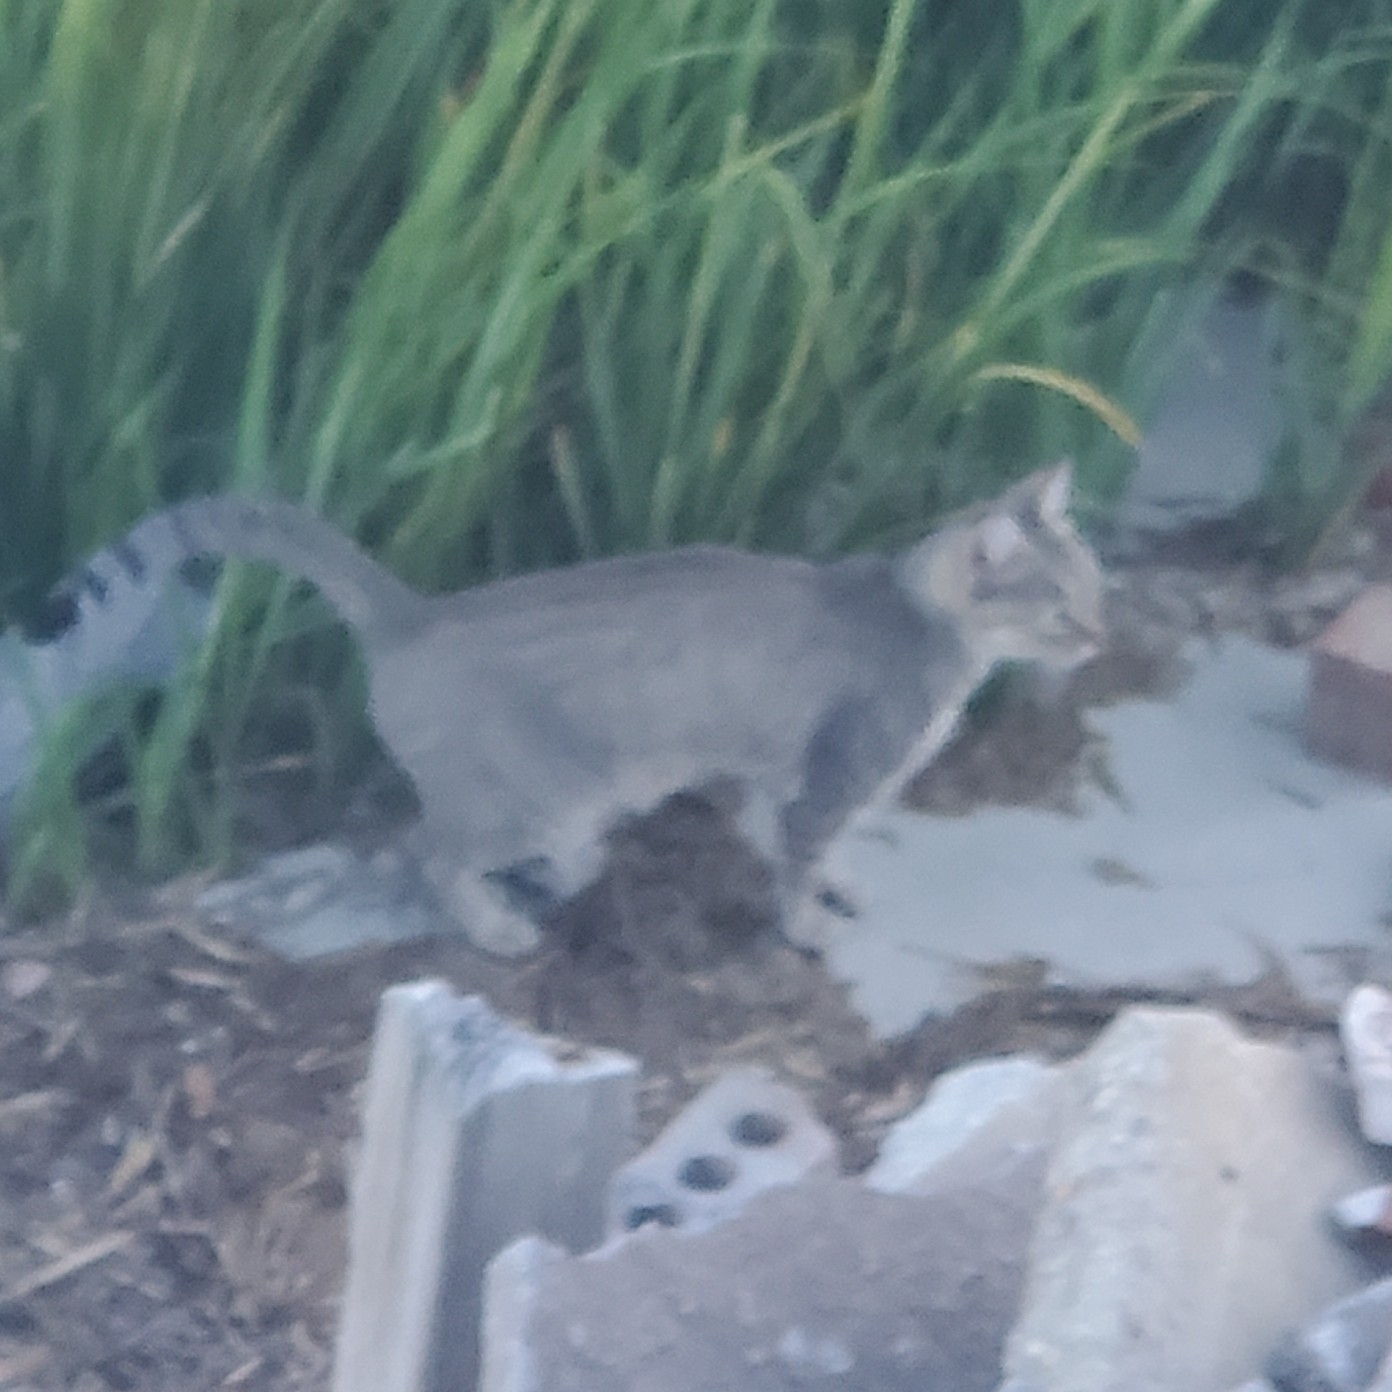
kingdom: Animalia
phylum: Chordata
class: Mammalia
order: Carnivora
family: Felidae
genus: Felis
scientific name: Felis catus
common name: Domestic cat
